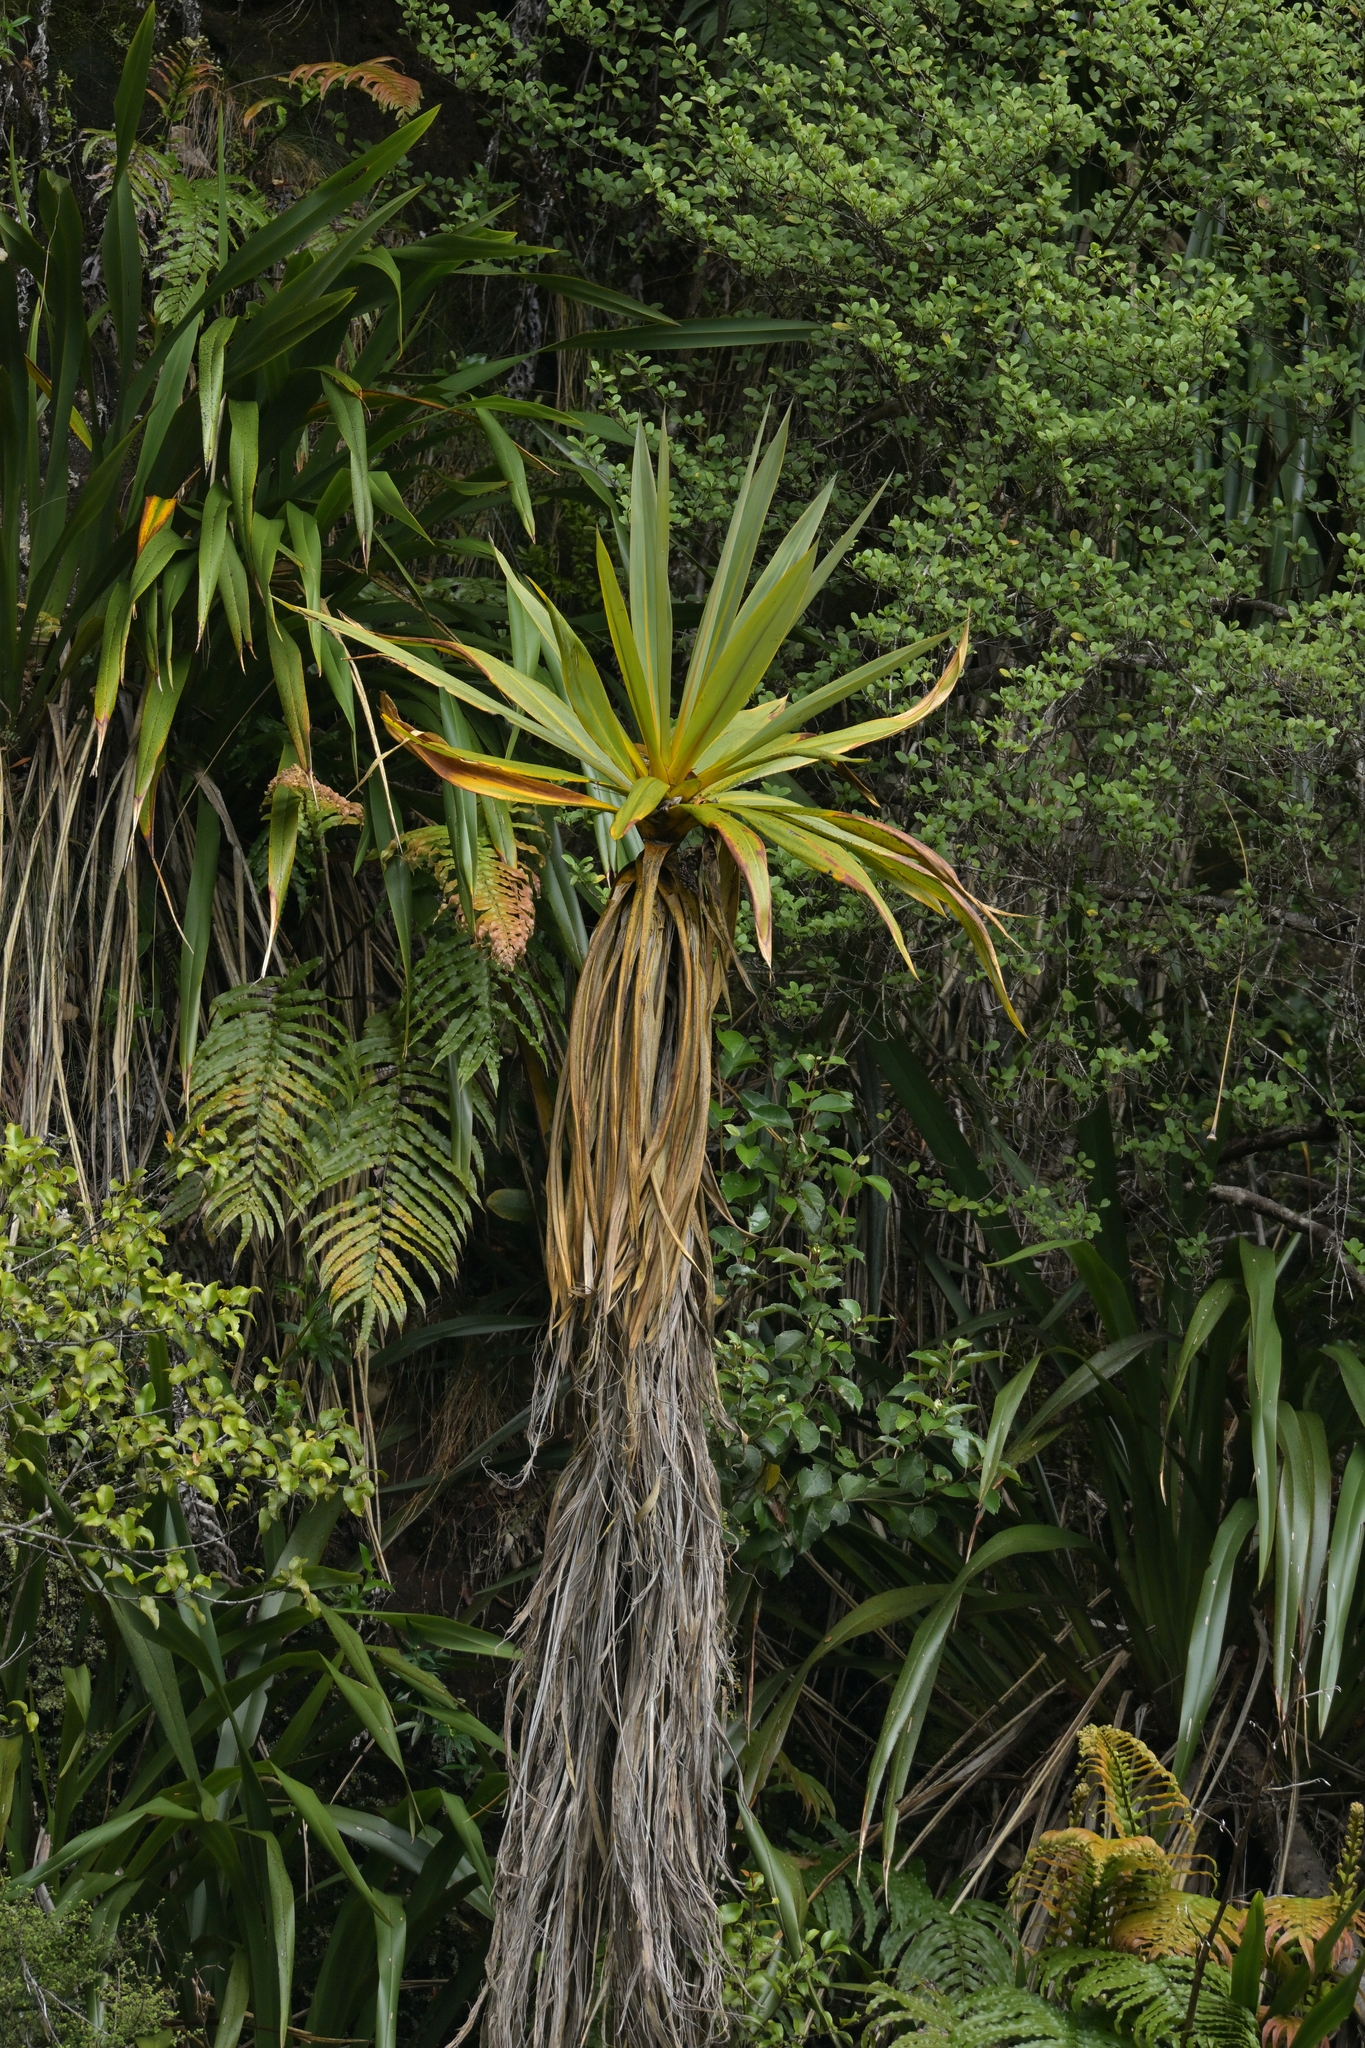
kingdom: Plantae
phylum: Tracheophyta
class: Liliopsida
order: Asparagales
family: Asparagaceae
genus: Cordyline
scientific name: Cordyline indivisa
